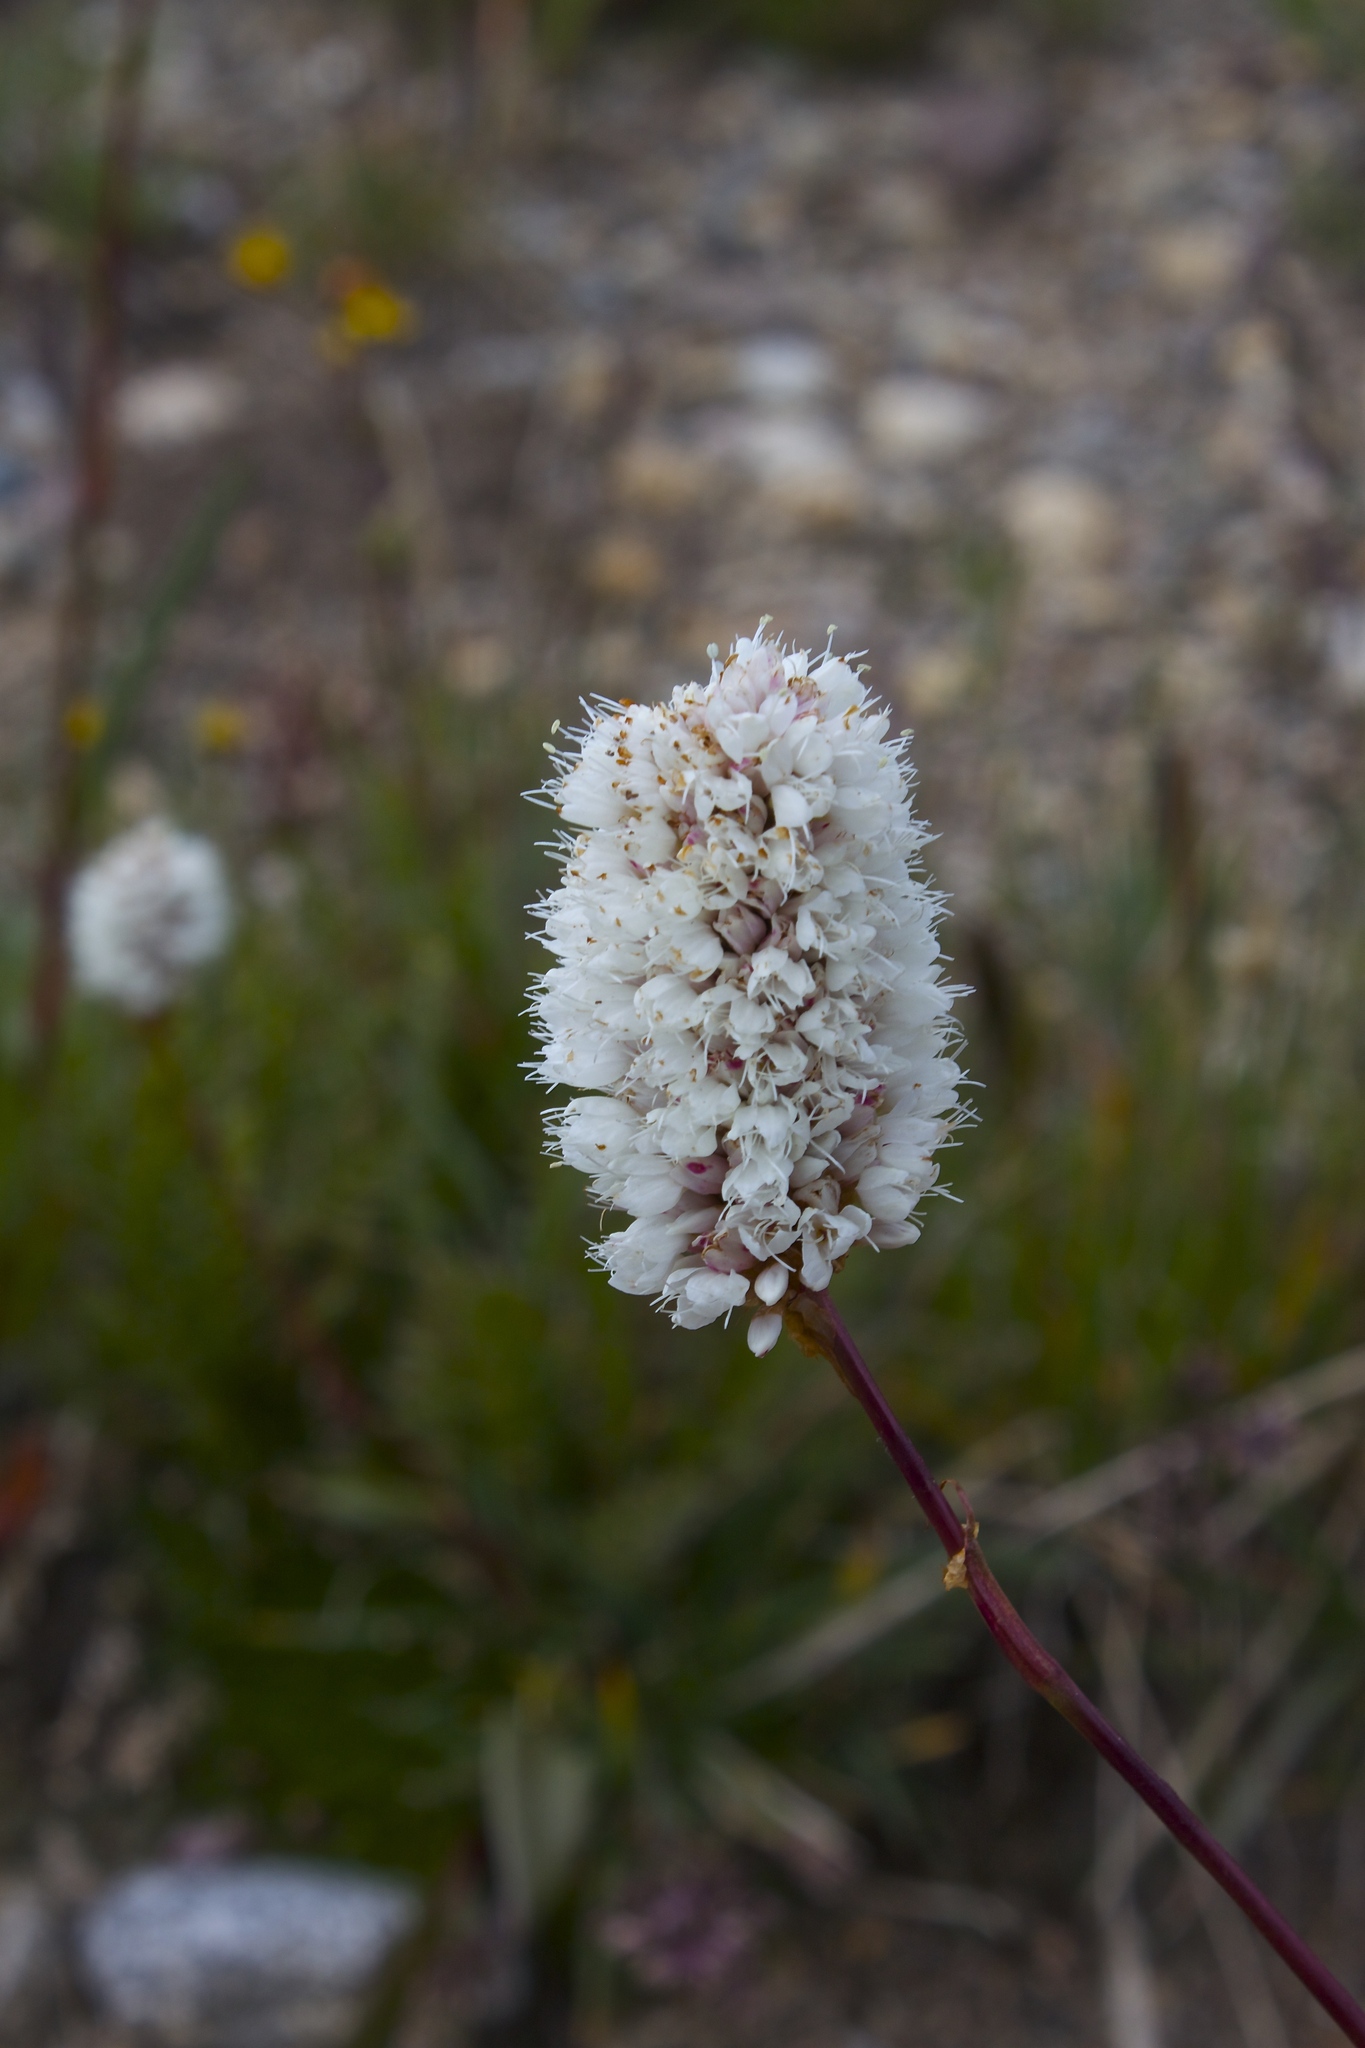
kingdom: Plantae
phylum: Tracheophyta
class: Magnoliopsida
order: Caryophyllales
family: Polygonaceae
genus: Bistorta
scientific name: Bistorta bistortoides
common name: American bistort
